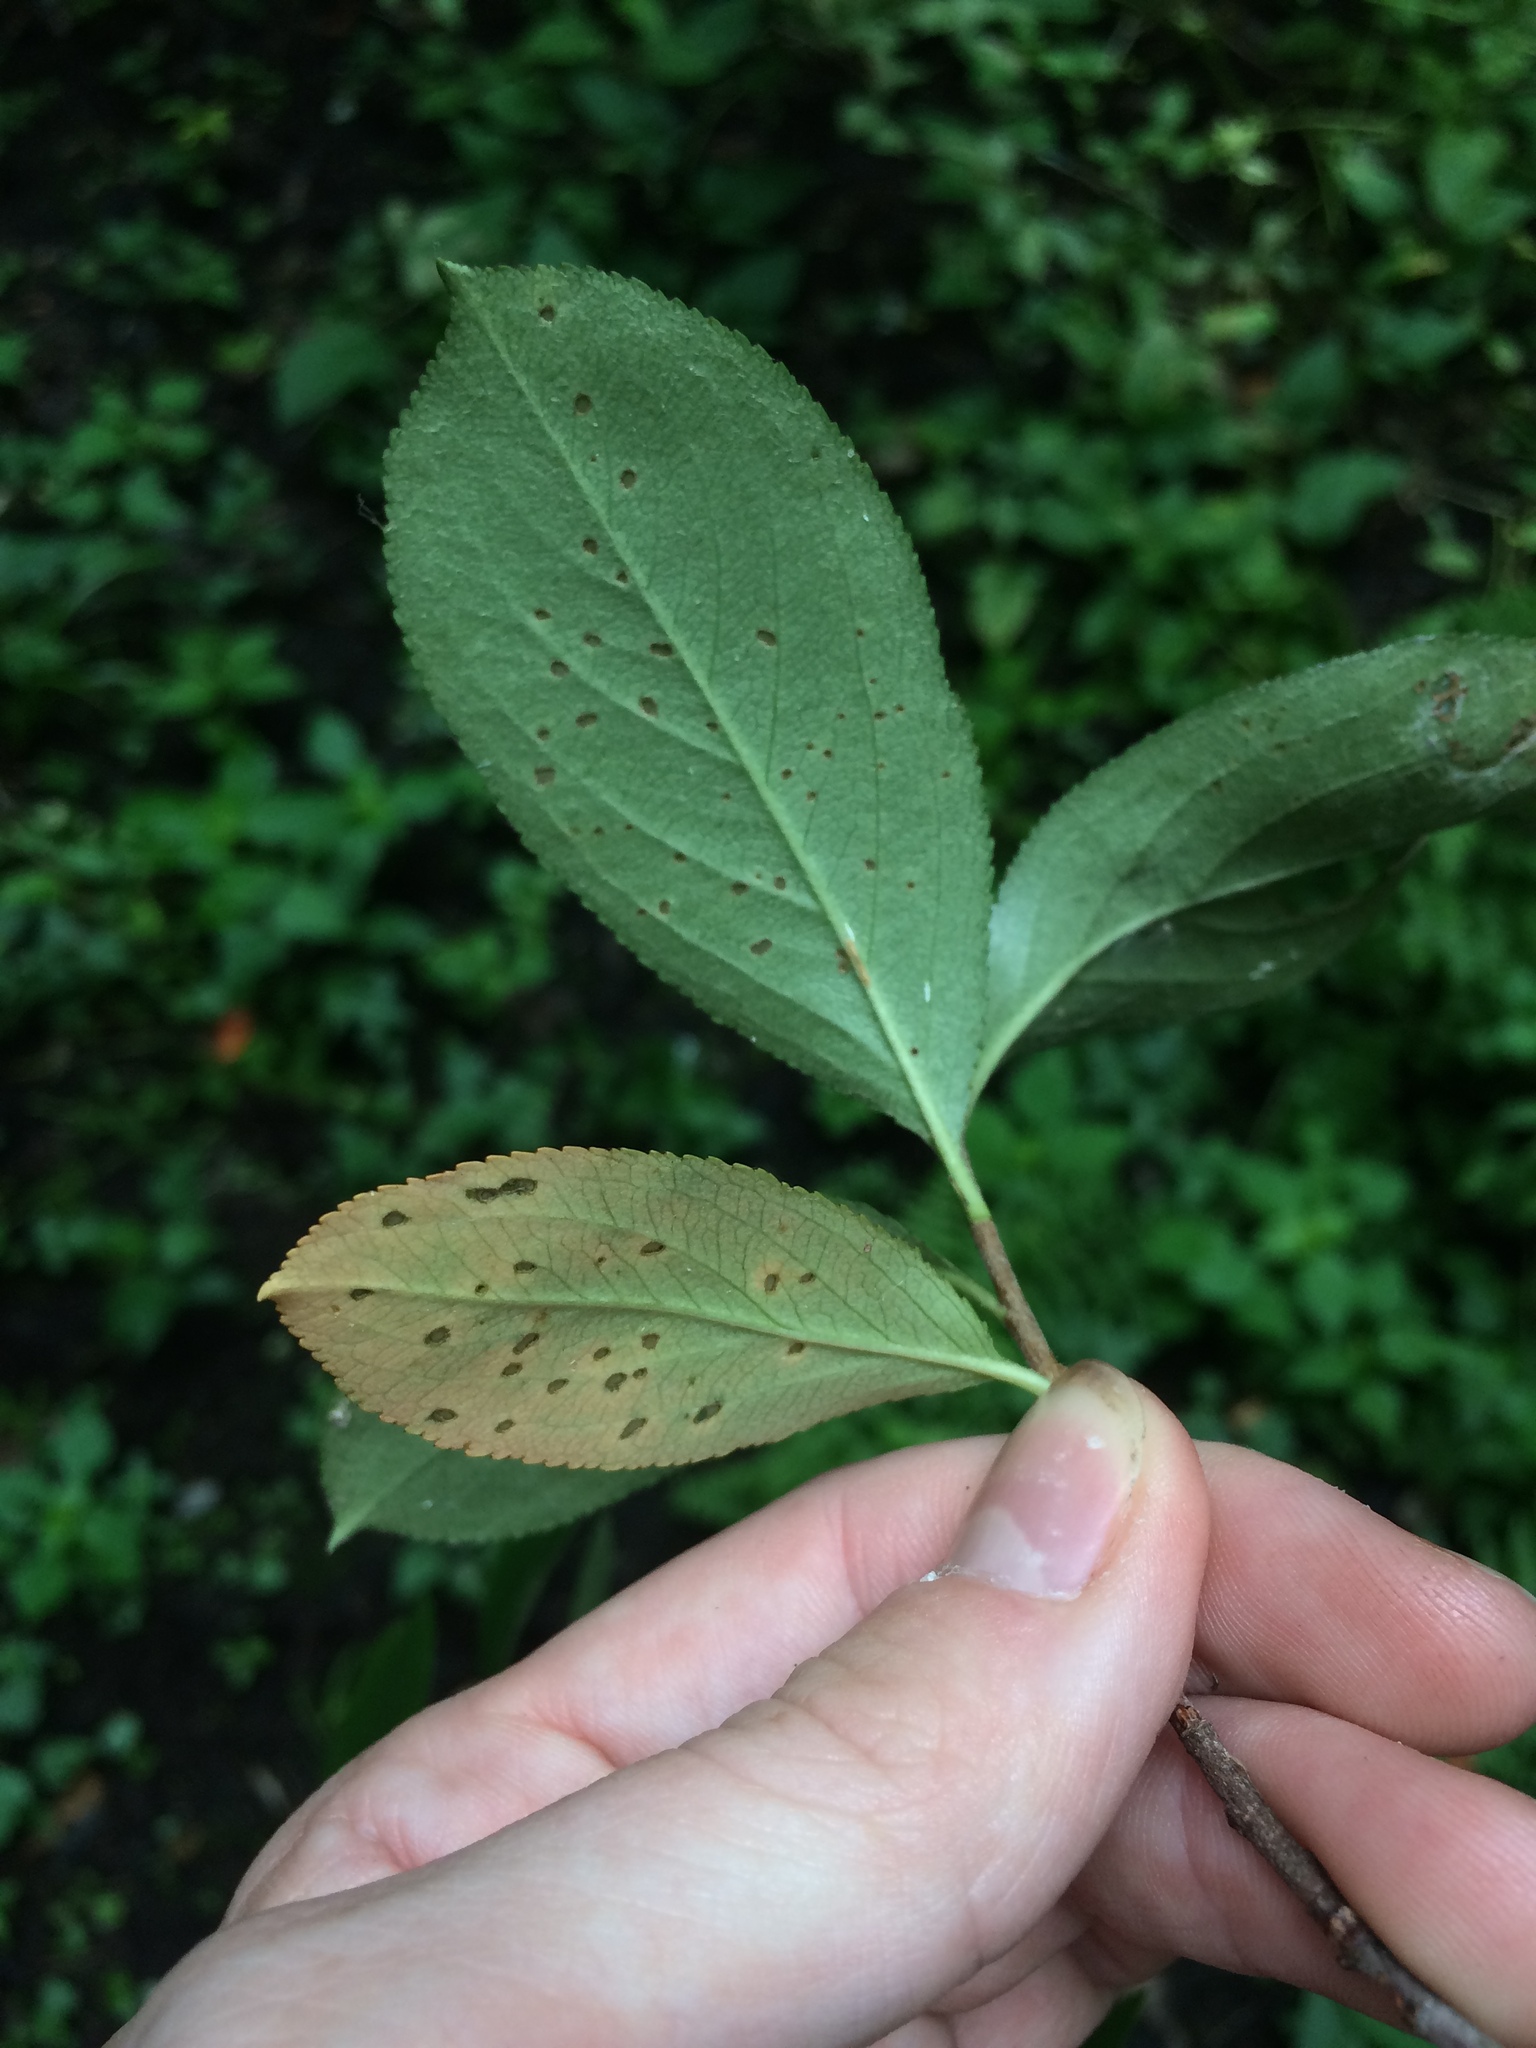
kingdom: Plantae
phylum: Tracheophyta
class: Magnoliopsida
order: Rosales
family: Rosaceae
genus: Aronia
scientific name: Aronia prunifolia
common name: Purple chokeberry
